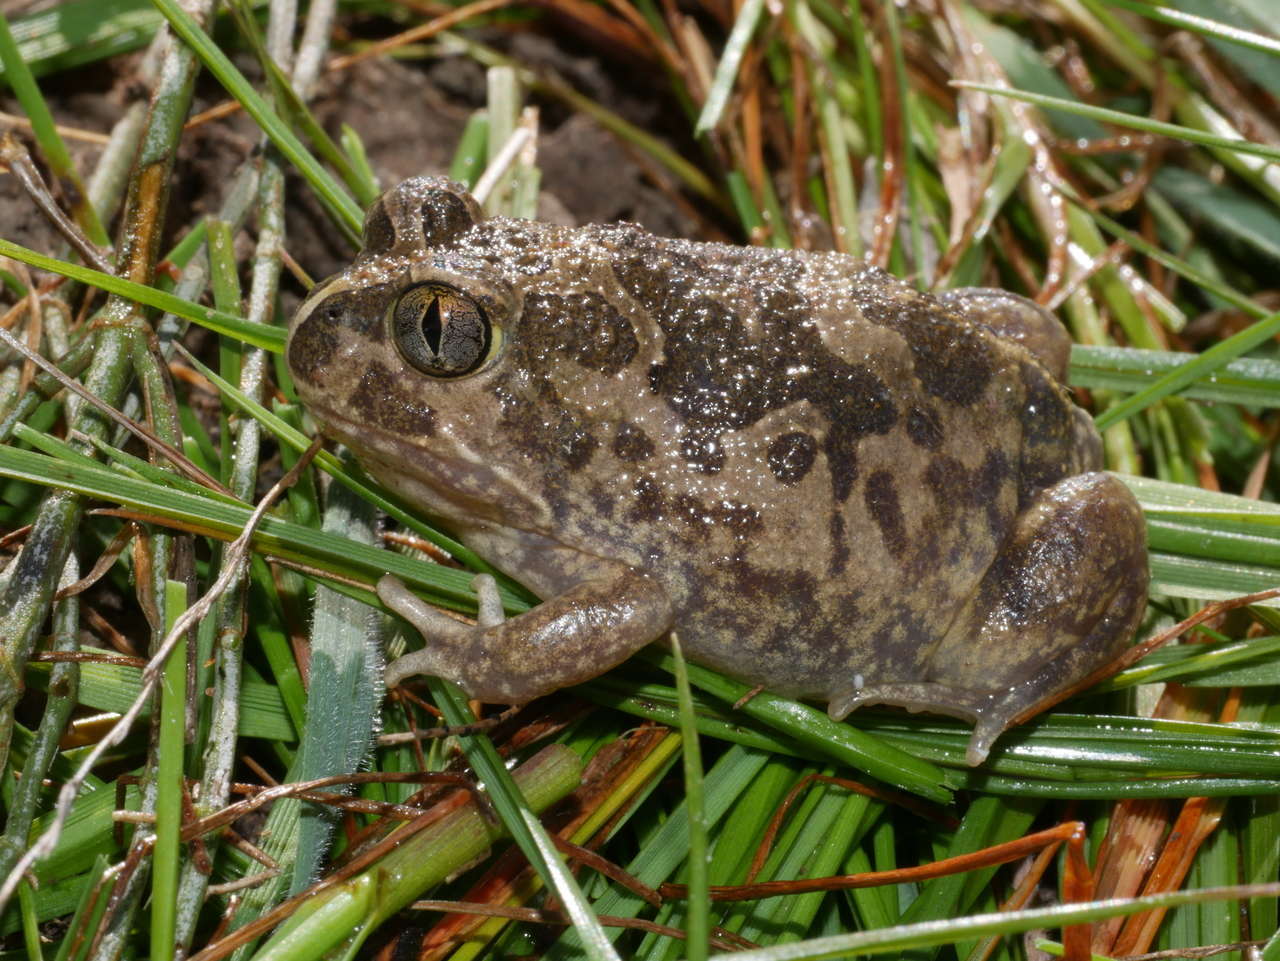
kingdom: Animalia
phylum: Chordata
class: Amphibia
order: Anura
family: Limnodynastidae
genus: Neobatrachus
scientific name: Neobatrachus sudelli
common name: Common spadefoot toad
